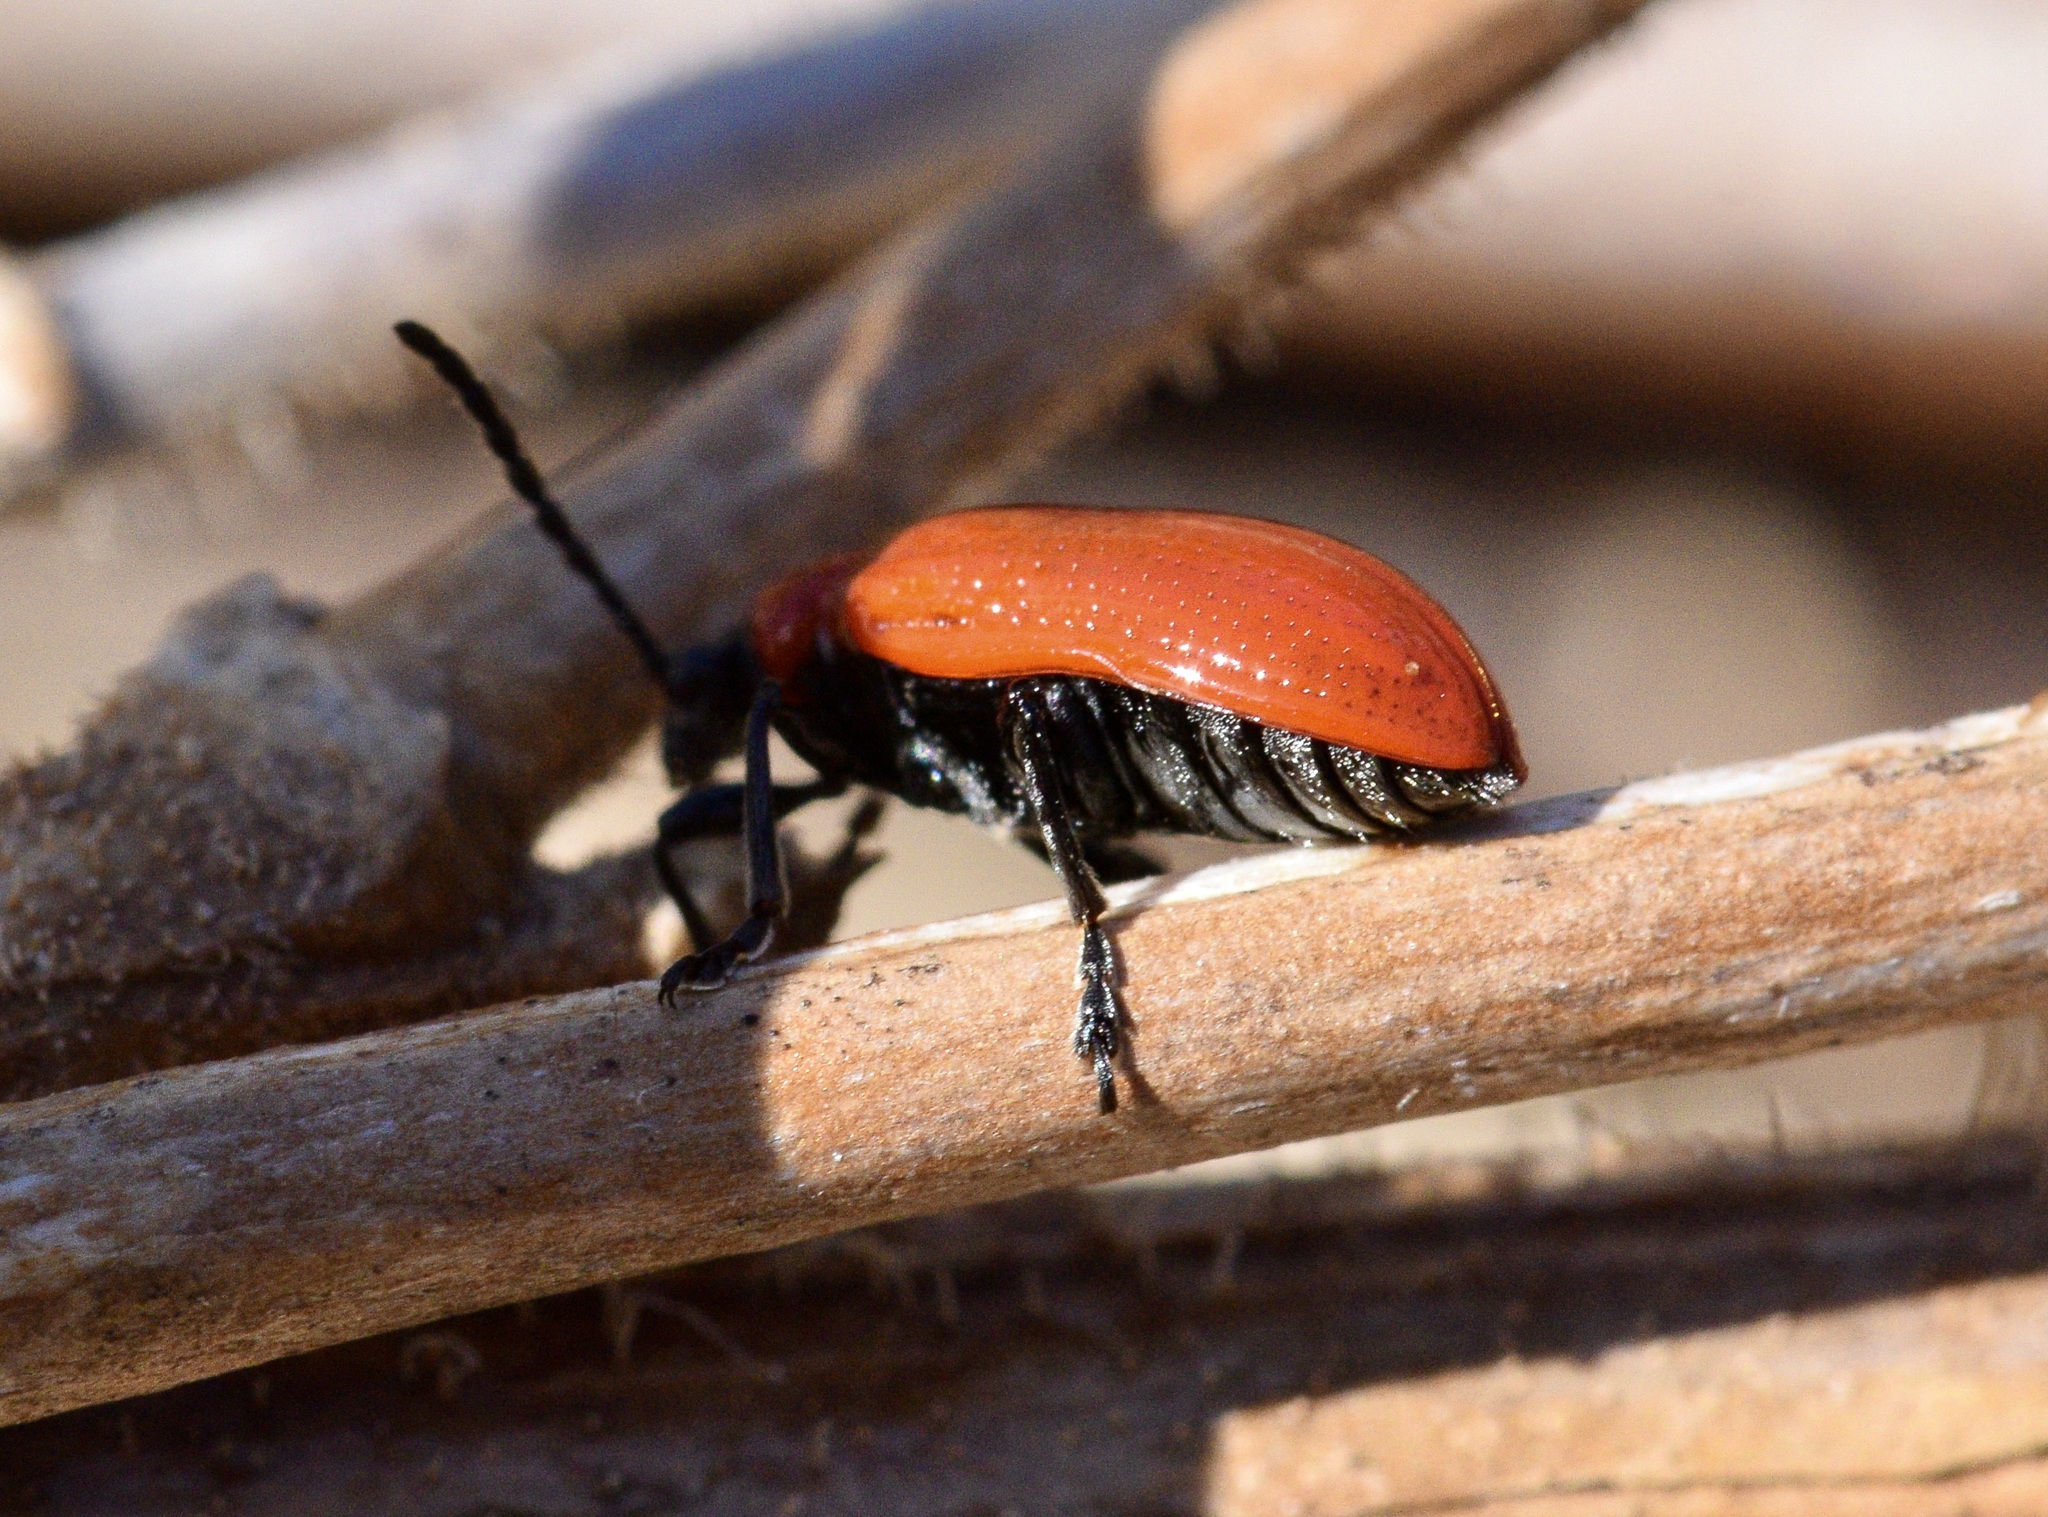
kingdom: Animalia
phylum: Arthropoda
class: Insecta
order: Coleoptera
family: Chrysomelidae
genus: Lilioceris
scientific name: Lilioceris lilii
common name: Lily beetle
